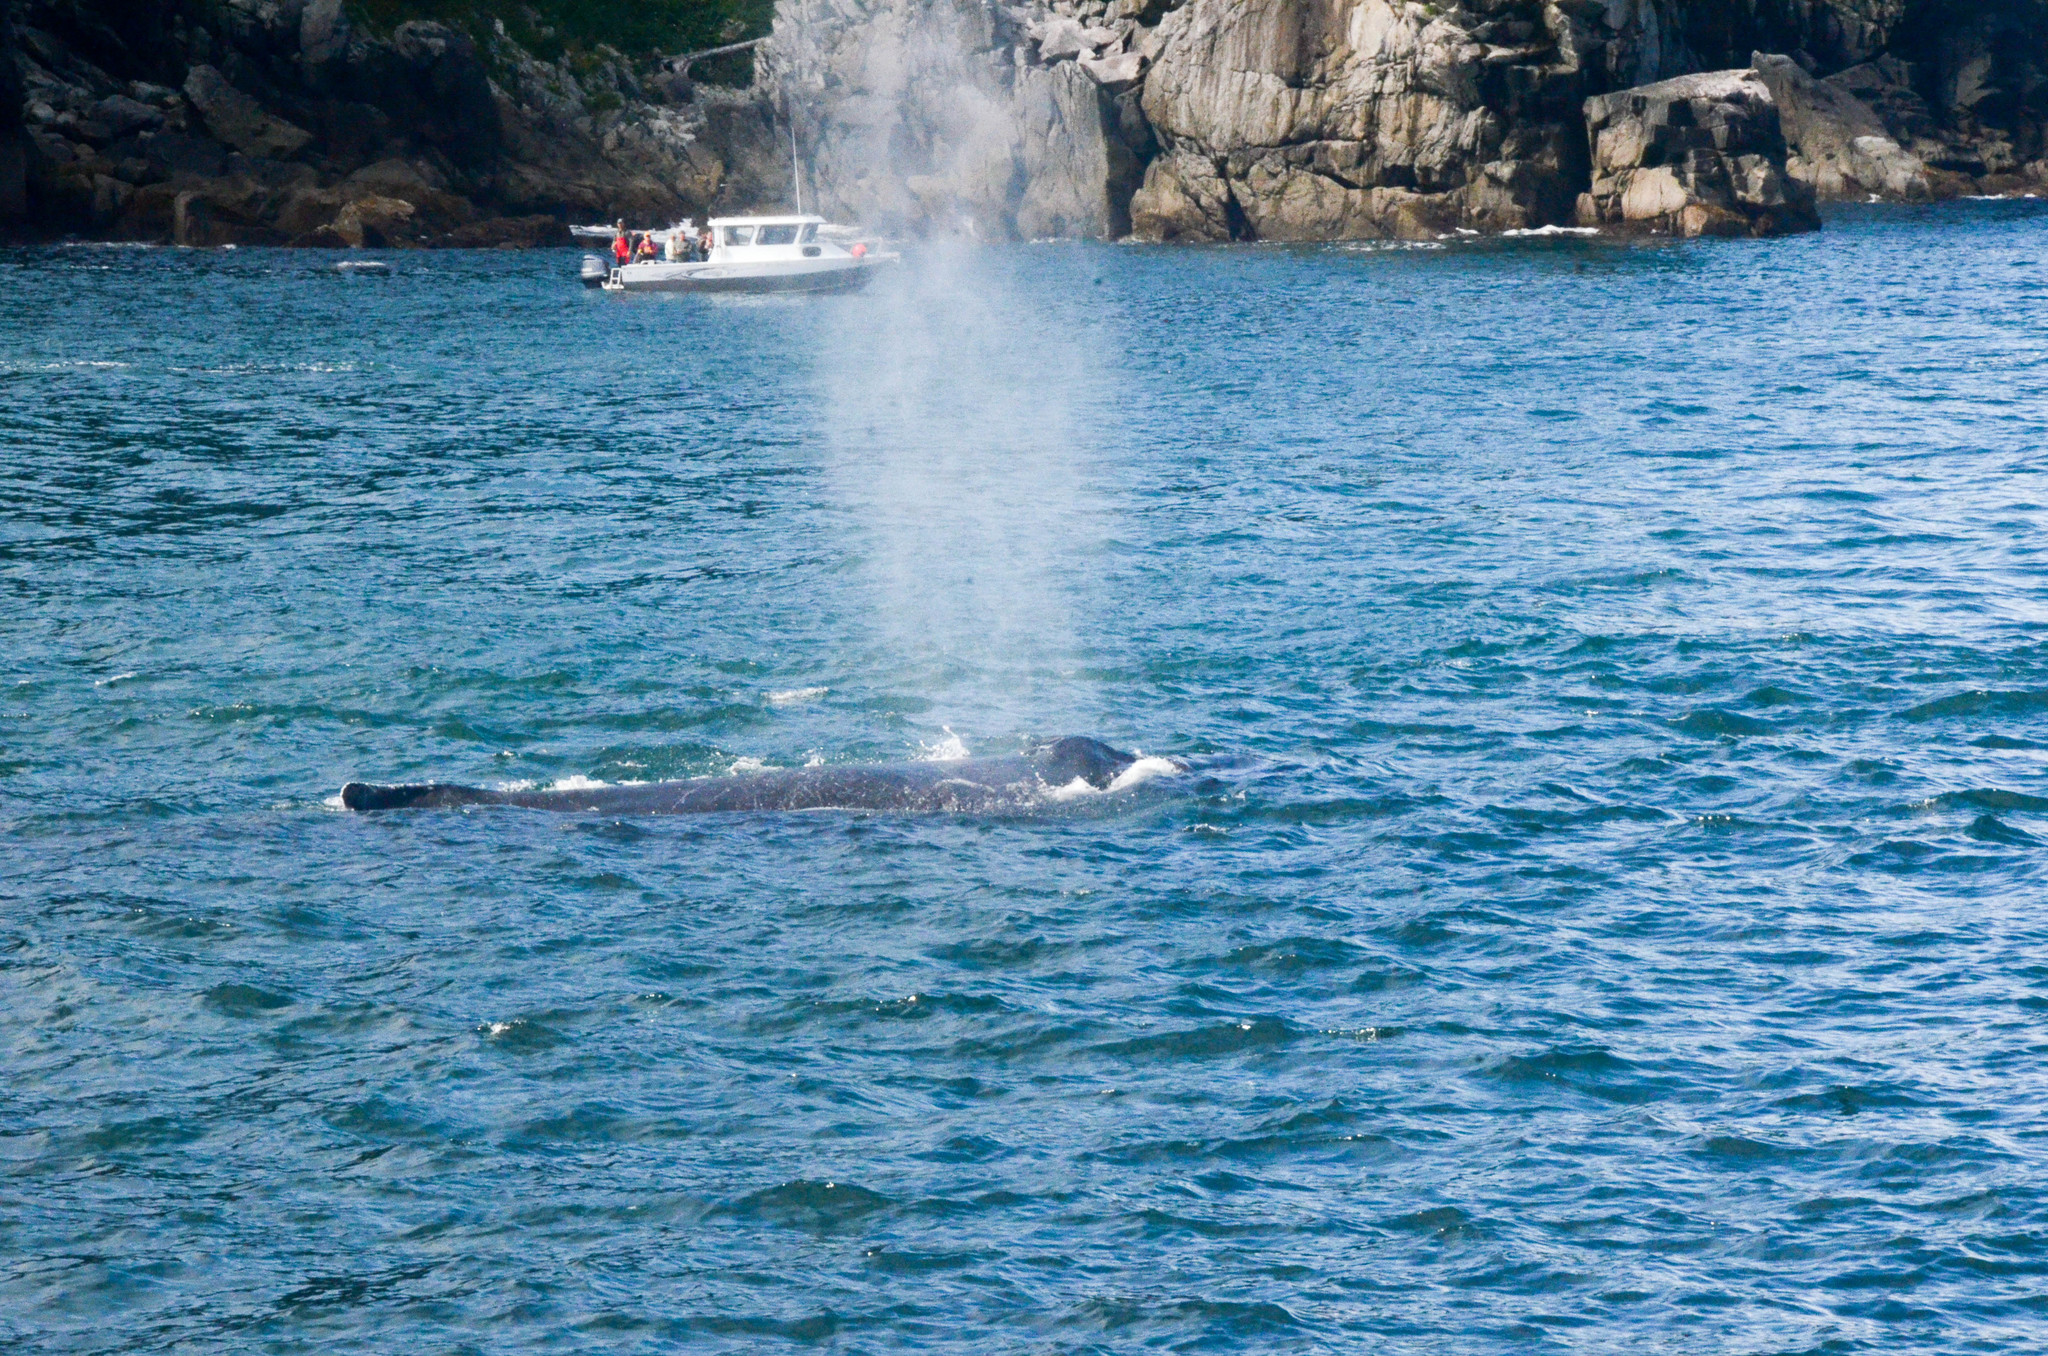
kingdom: Animalia
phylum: Chordata
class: Mammalia
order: Cetacea
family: Balaenopteridae
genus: Megaptera
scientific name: Megaptera novaeangliae
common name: Humpback whale
